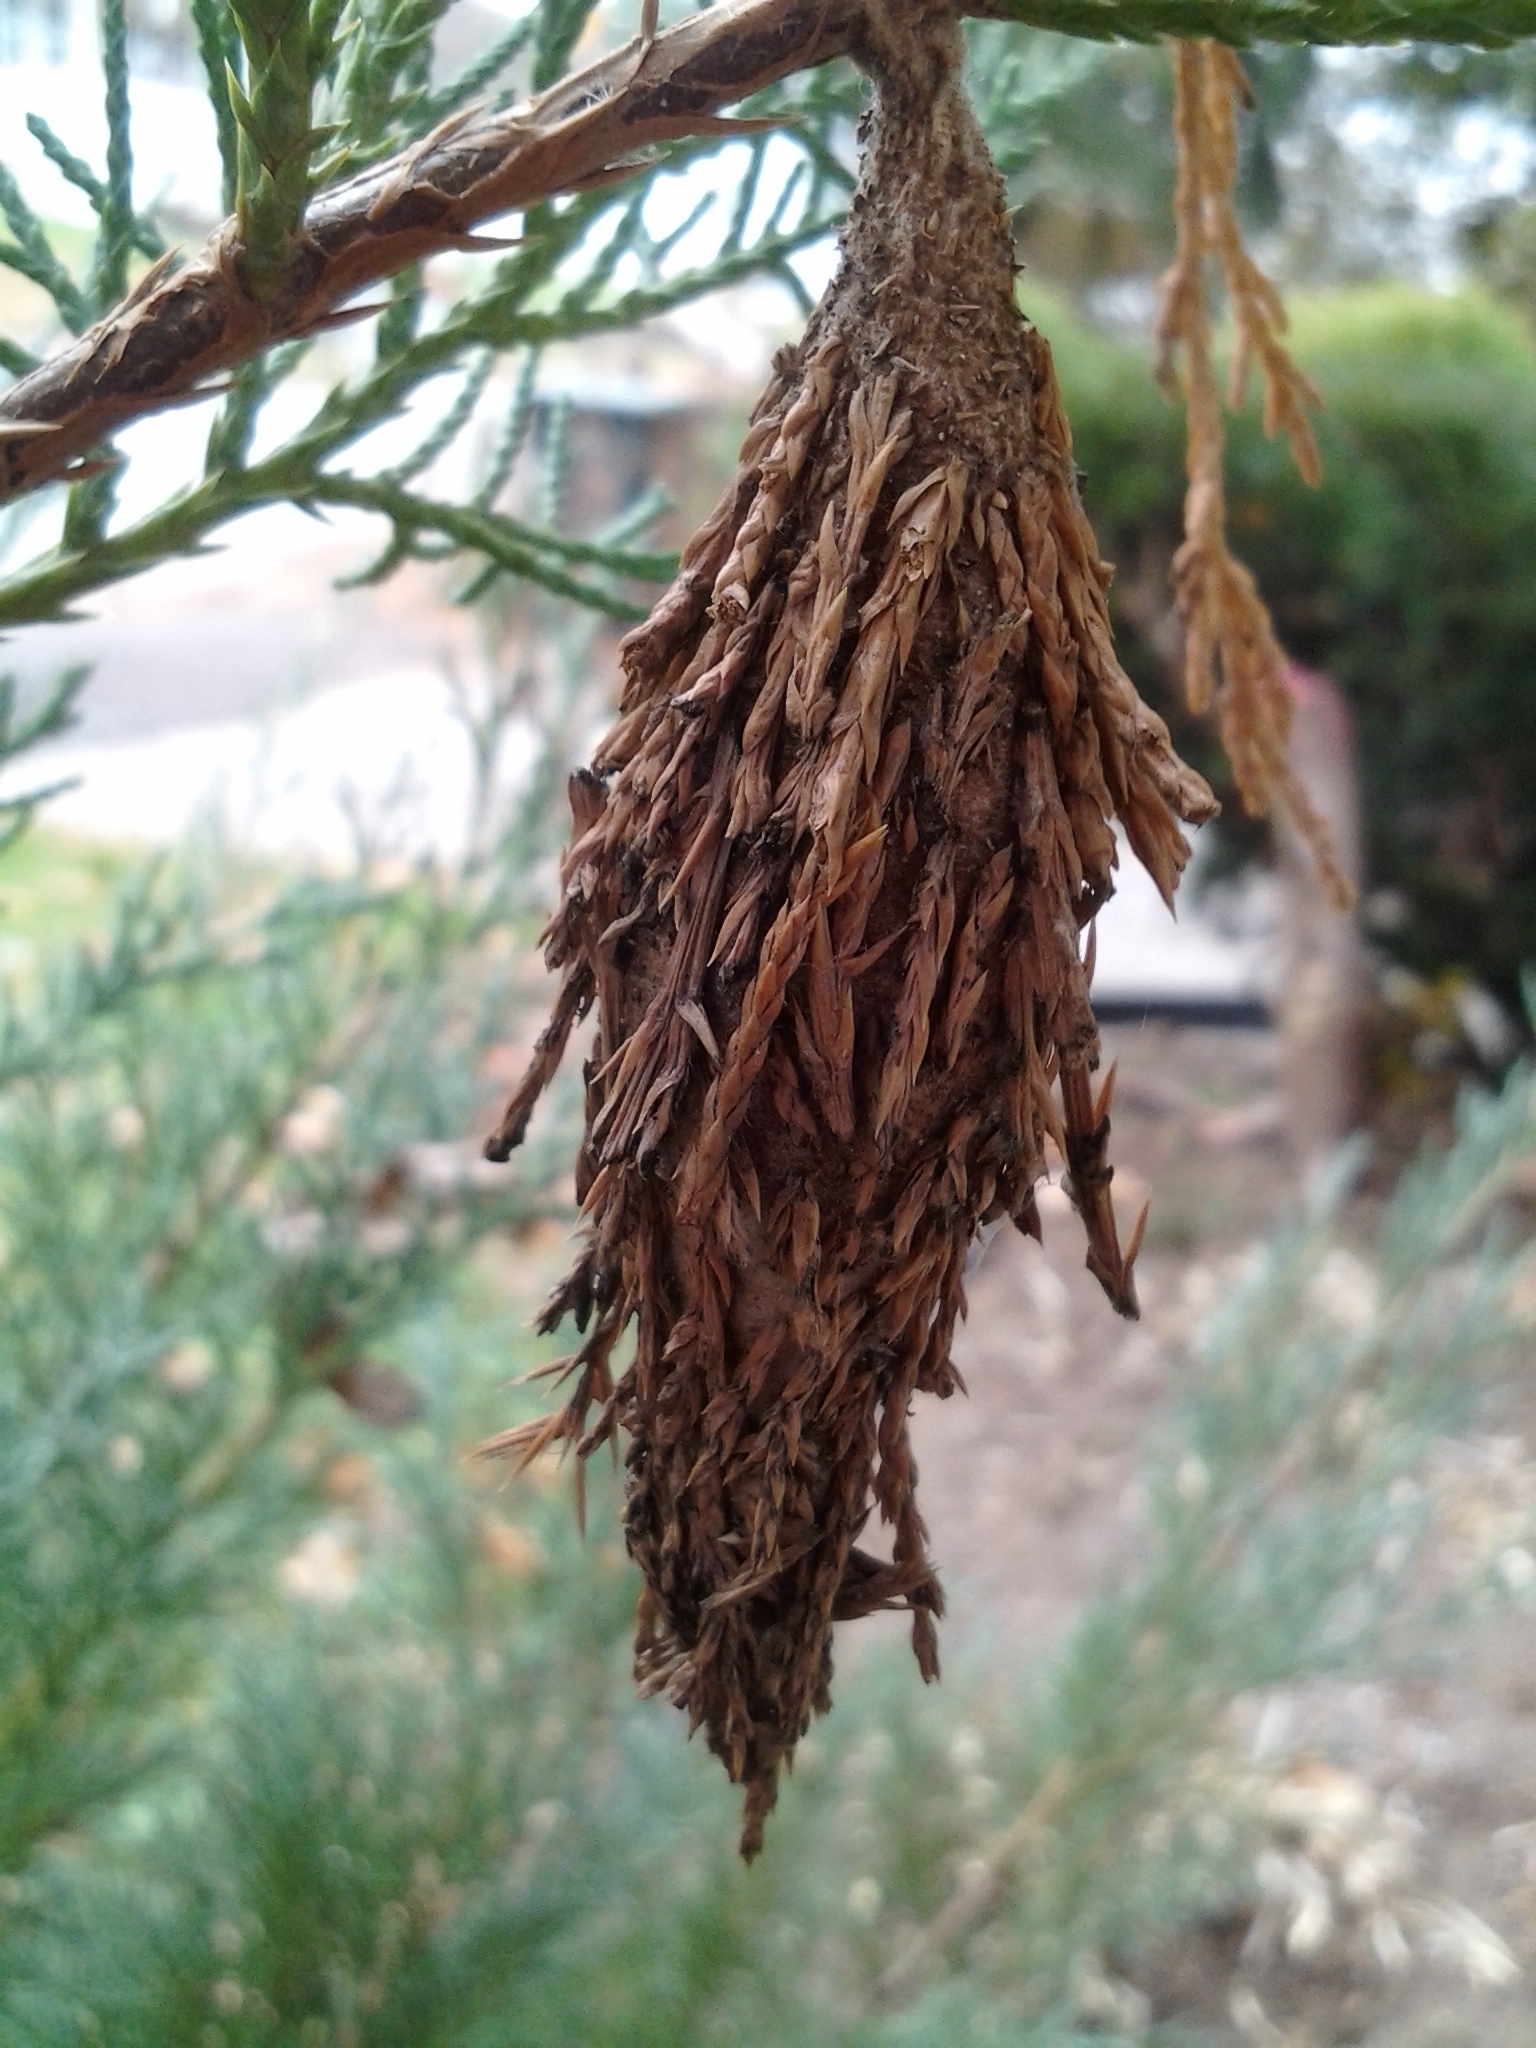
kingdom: Animalia
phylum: Arthropoda
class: Insecta
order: Lepidoptera
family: Psychidae
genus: Thyridopteryx
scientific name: Thyridopteryx ephemeraeformis
